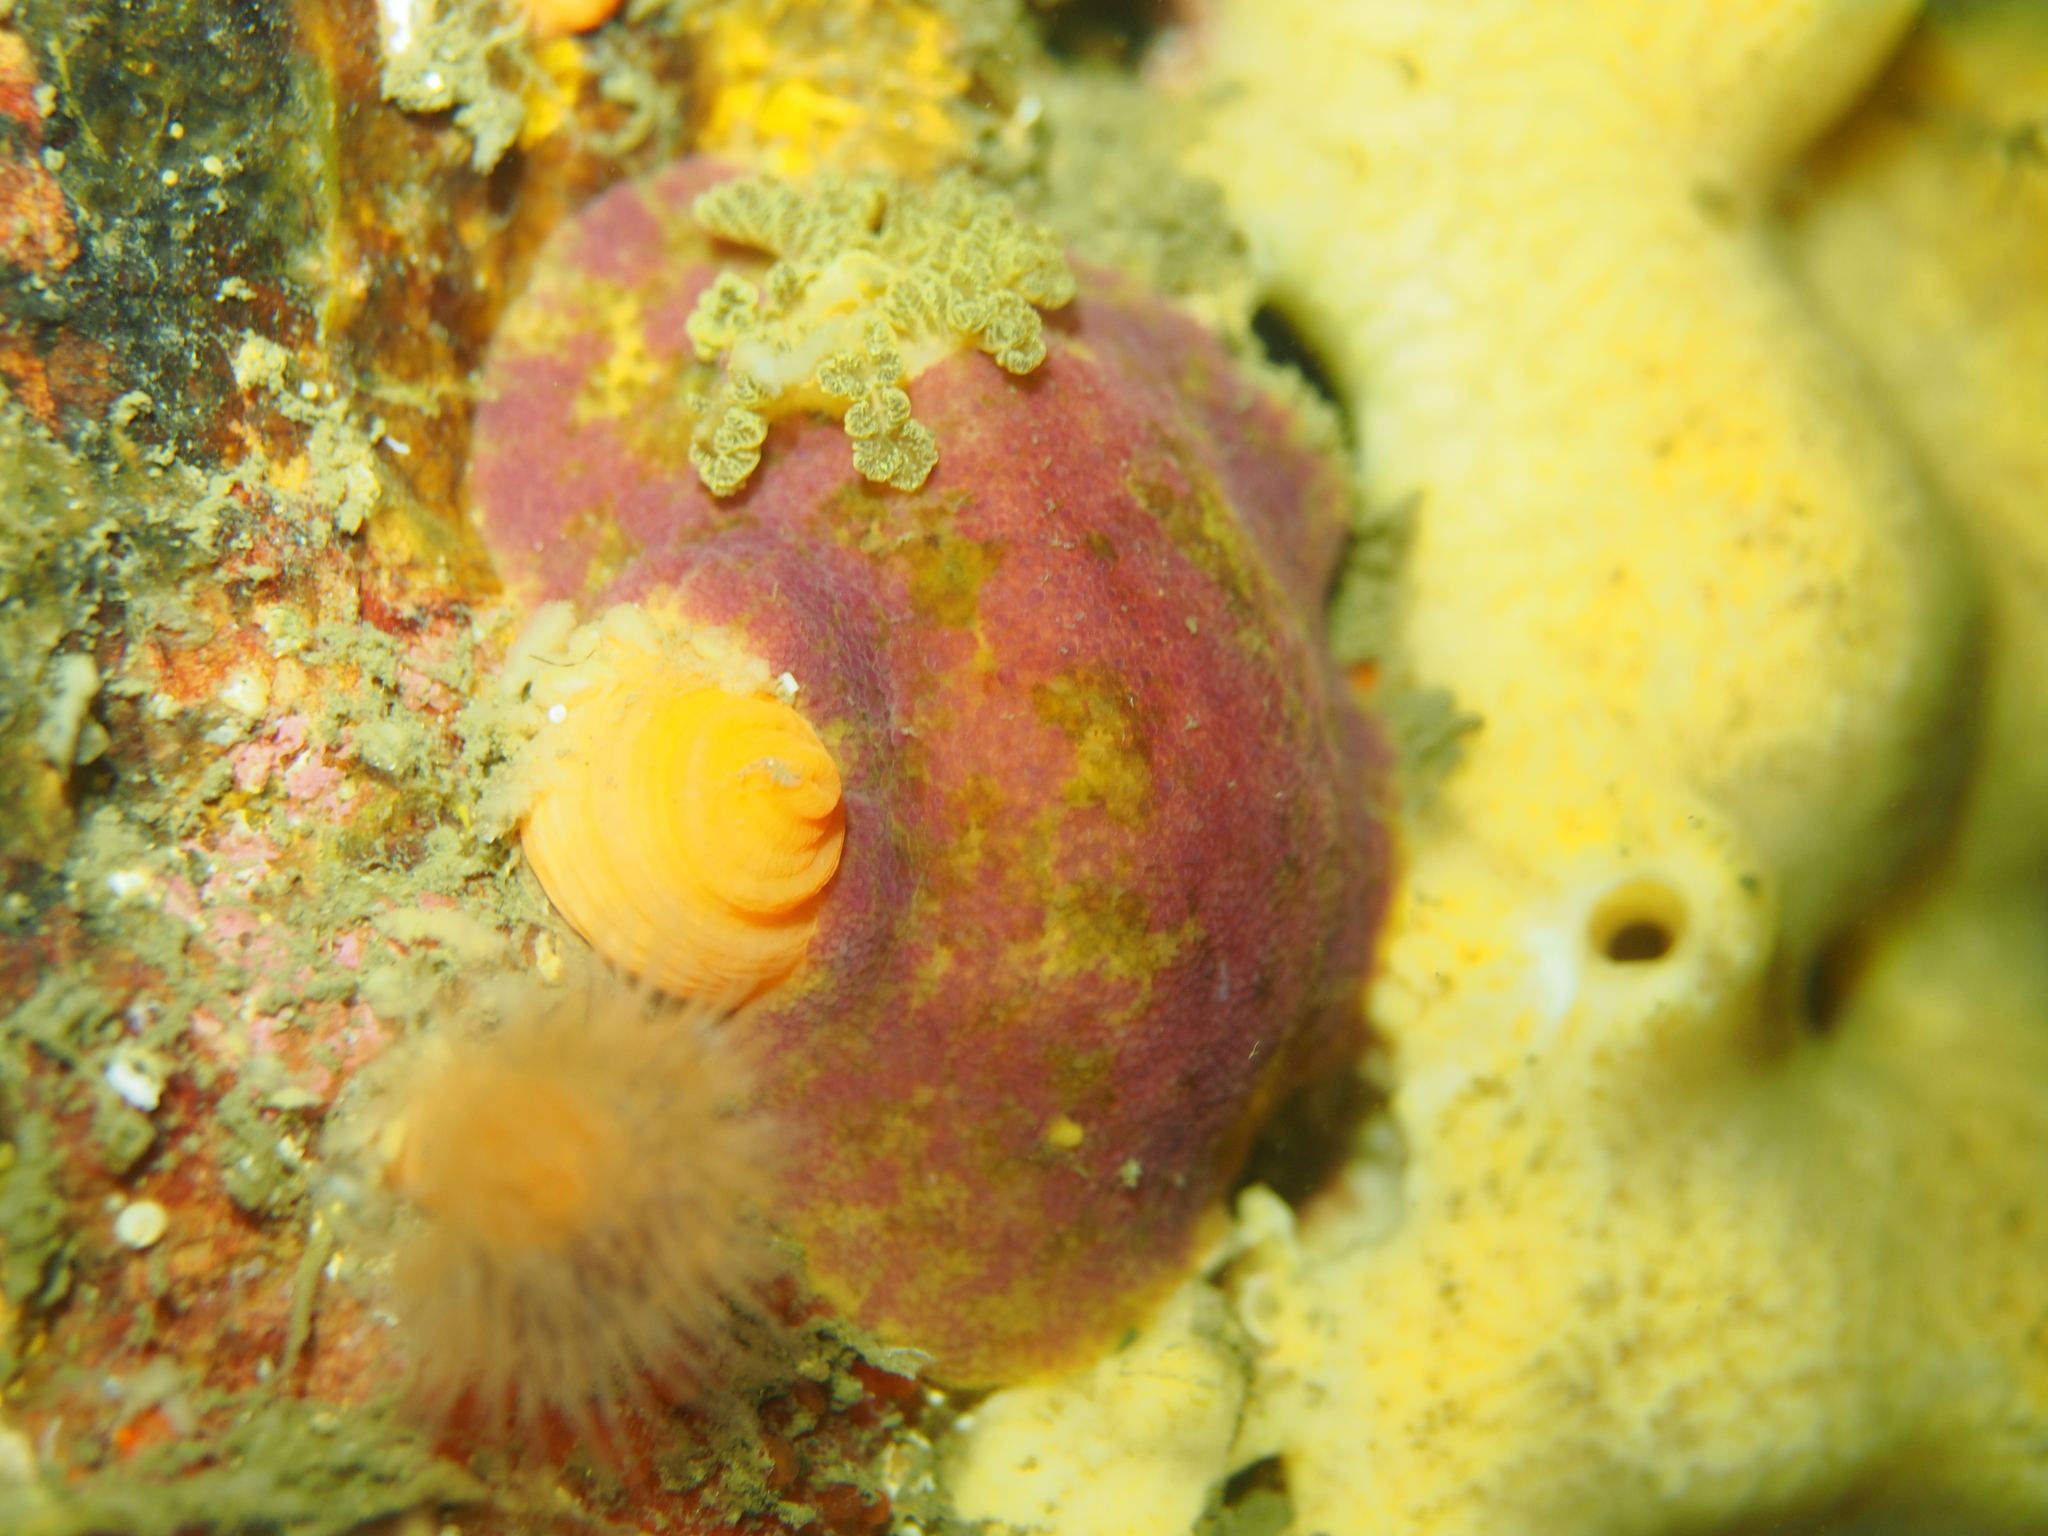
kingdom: Animalia
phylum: Mollusca
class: Gastropoda
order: Nudibranchia
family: Dorididae
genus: Doris
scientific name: Doris pseudoargus
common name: Sea lemon
